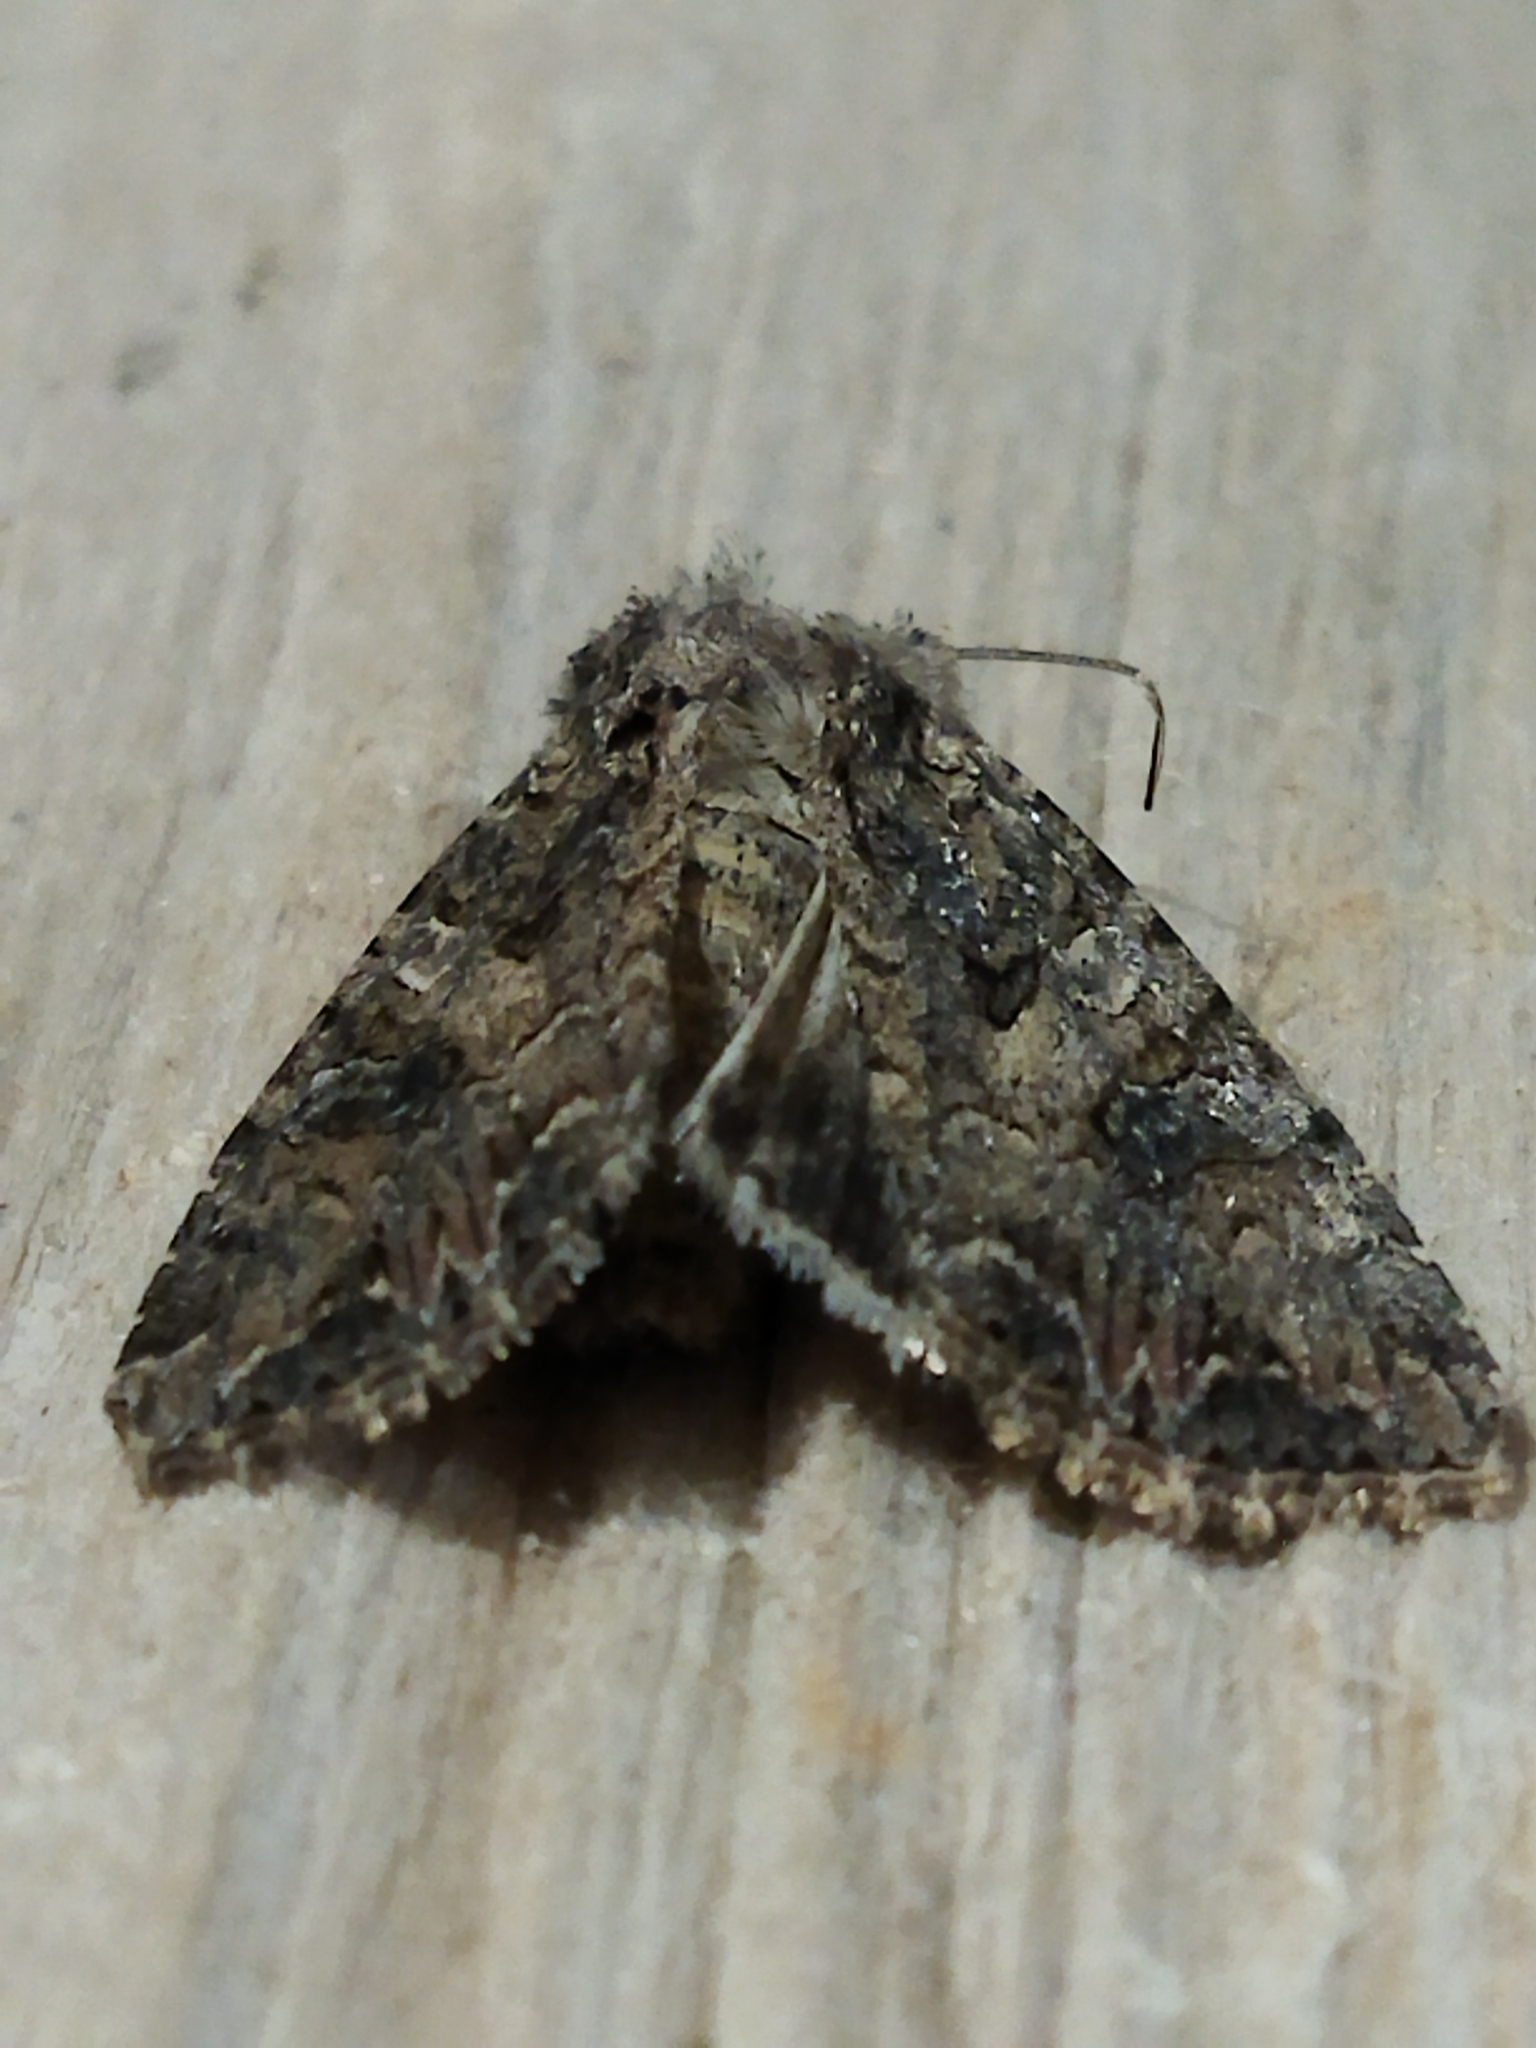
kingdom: Animalia
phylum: Arthropoda
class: Insecta
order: Lepidoptera
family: Noctuidae
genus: Anarta
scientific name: Anarta trifolii
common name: Clover cutworm moth
